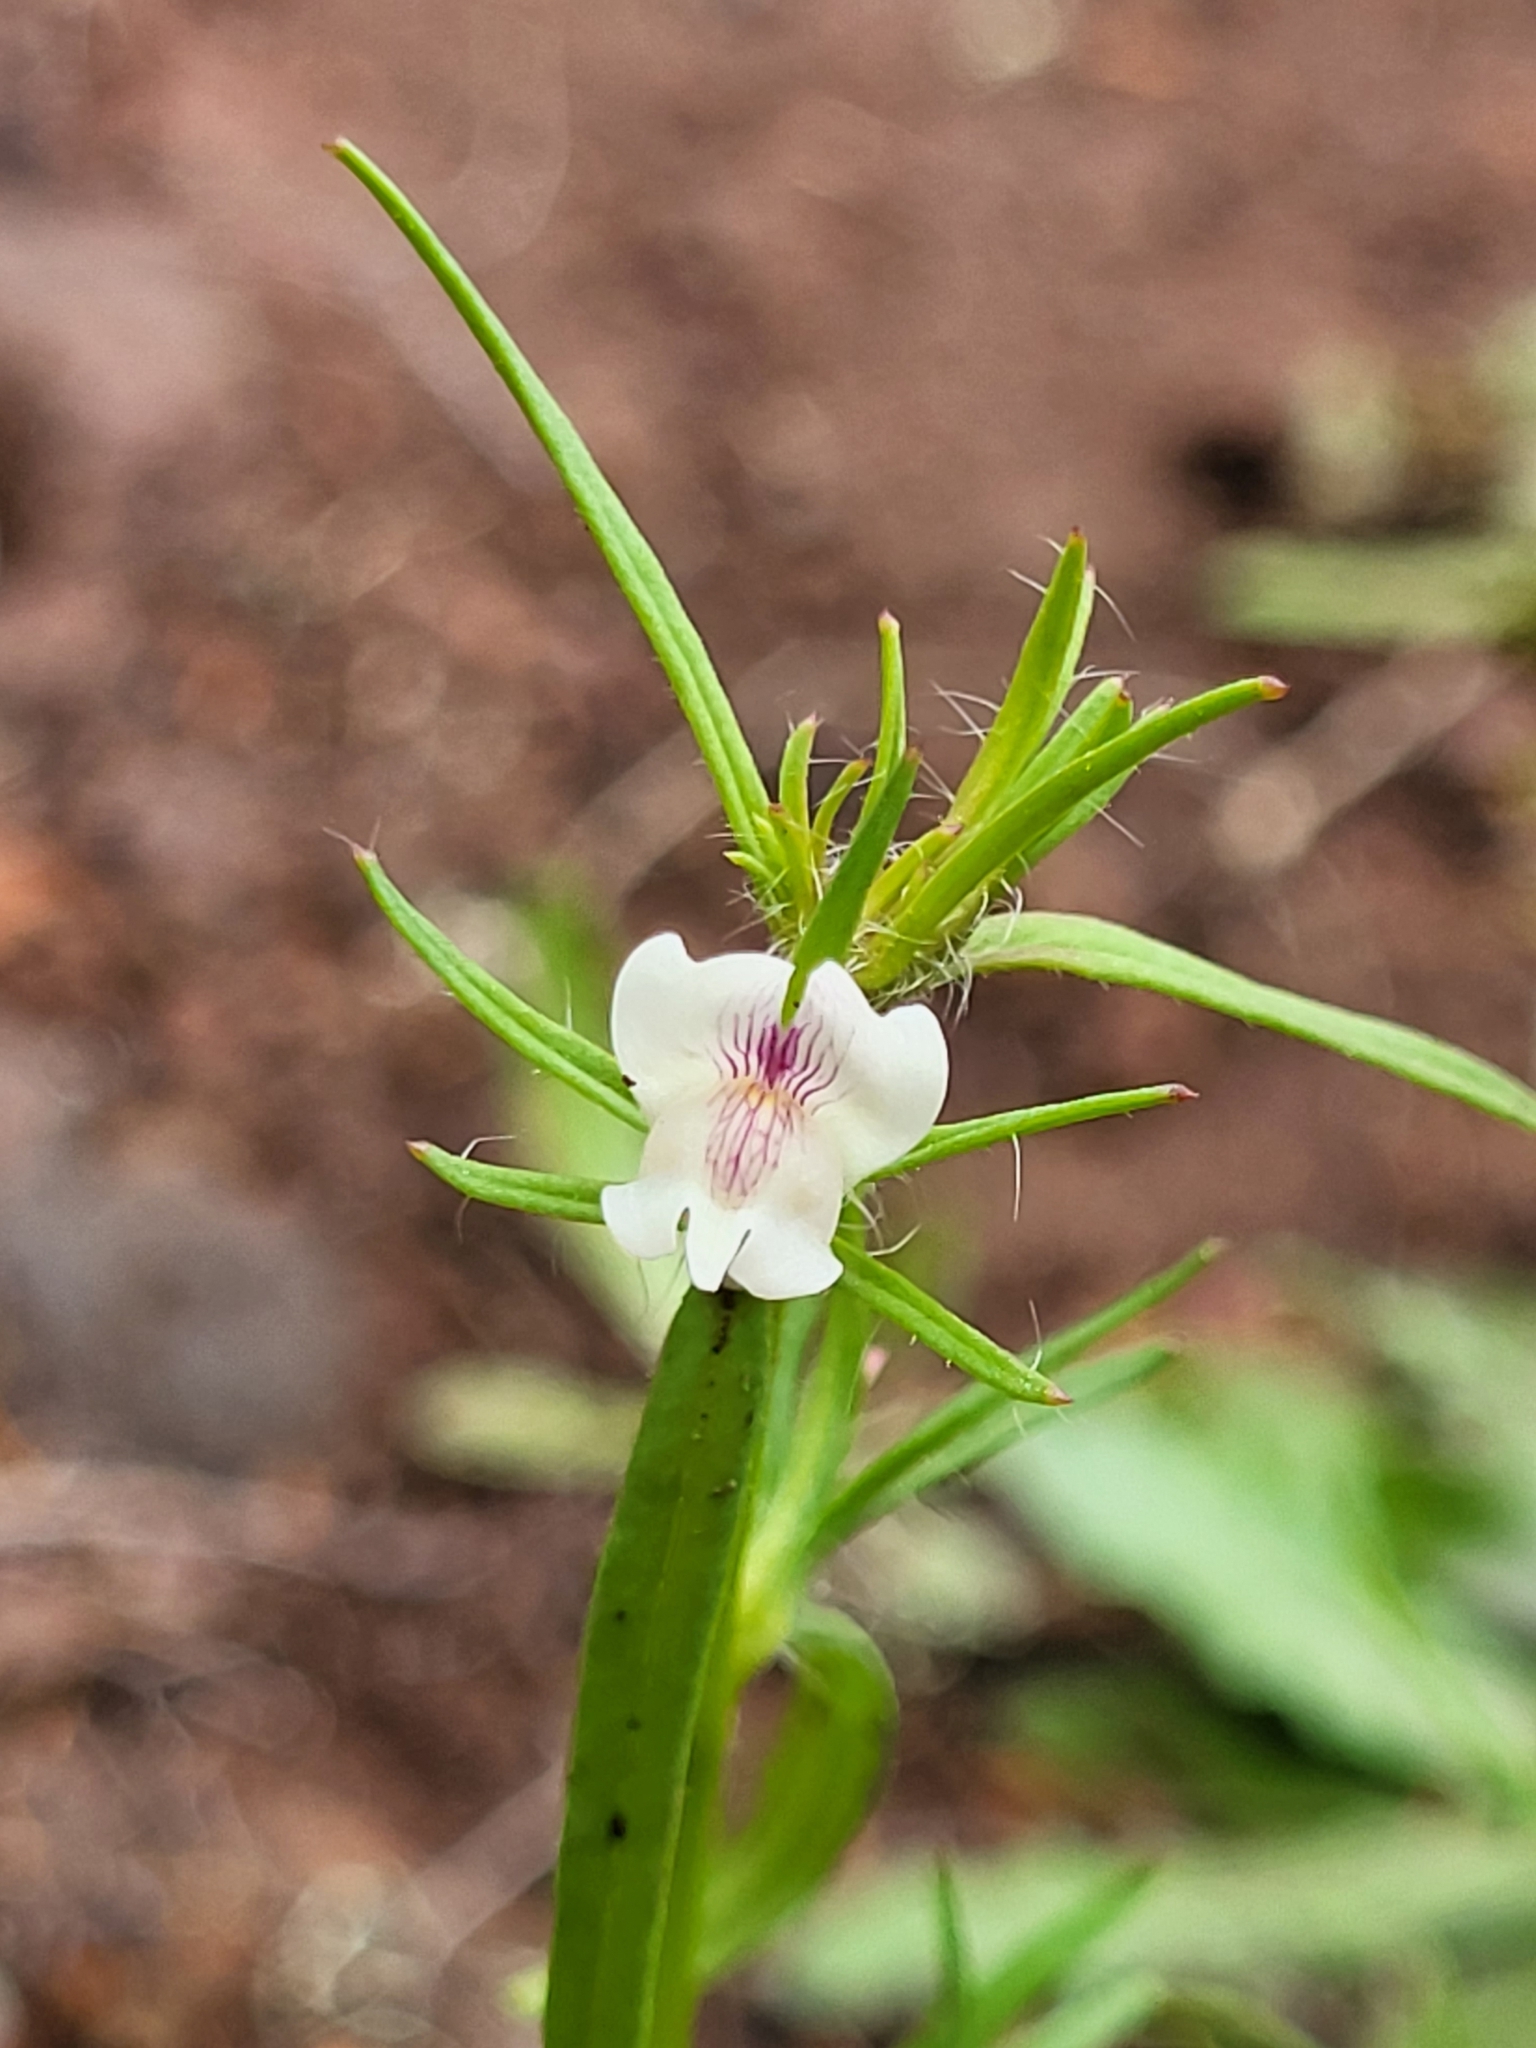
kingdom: Plantae
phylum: Tracheophyta
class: Magnoliopsida
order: Lamiales
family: Plantaginaceae
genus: Misopates
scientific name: Misopates calycinum
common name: Pale weasel's-snout
